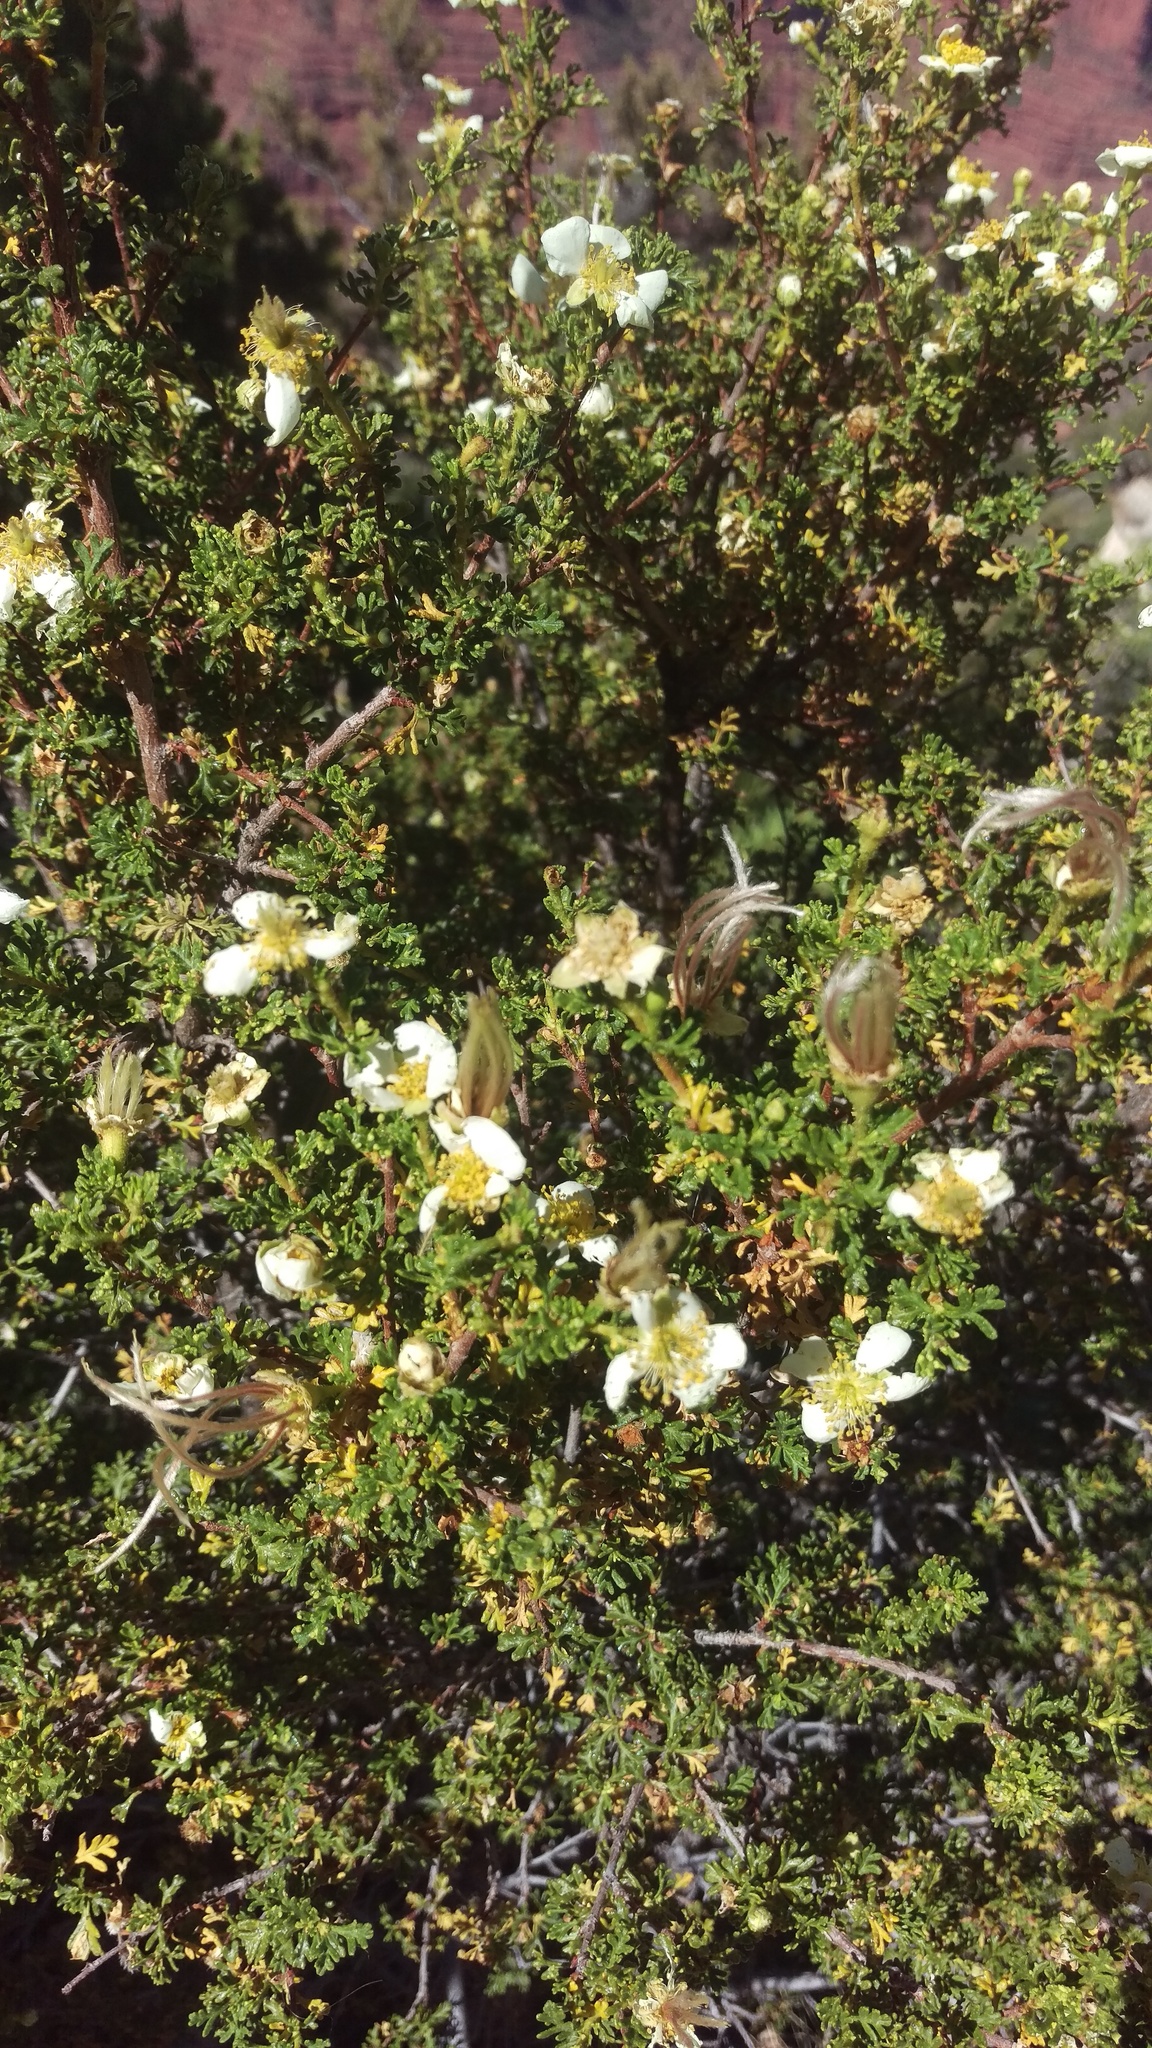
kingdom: Plantae
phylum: Tracheophyta
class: Magnoliopsida
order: Rosales
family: Rosaceae
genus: Purshia
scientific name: Purshia stansburiana
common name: Stansbury's cliffrose
